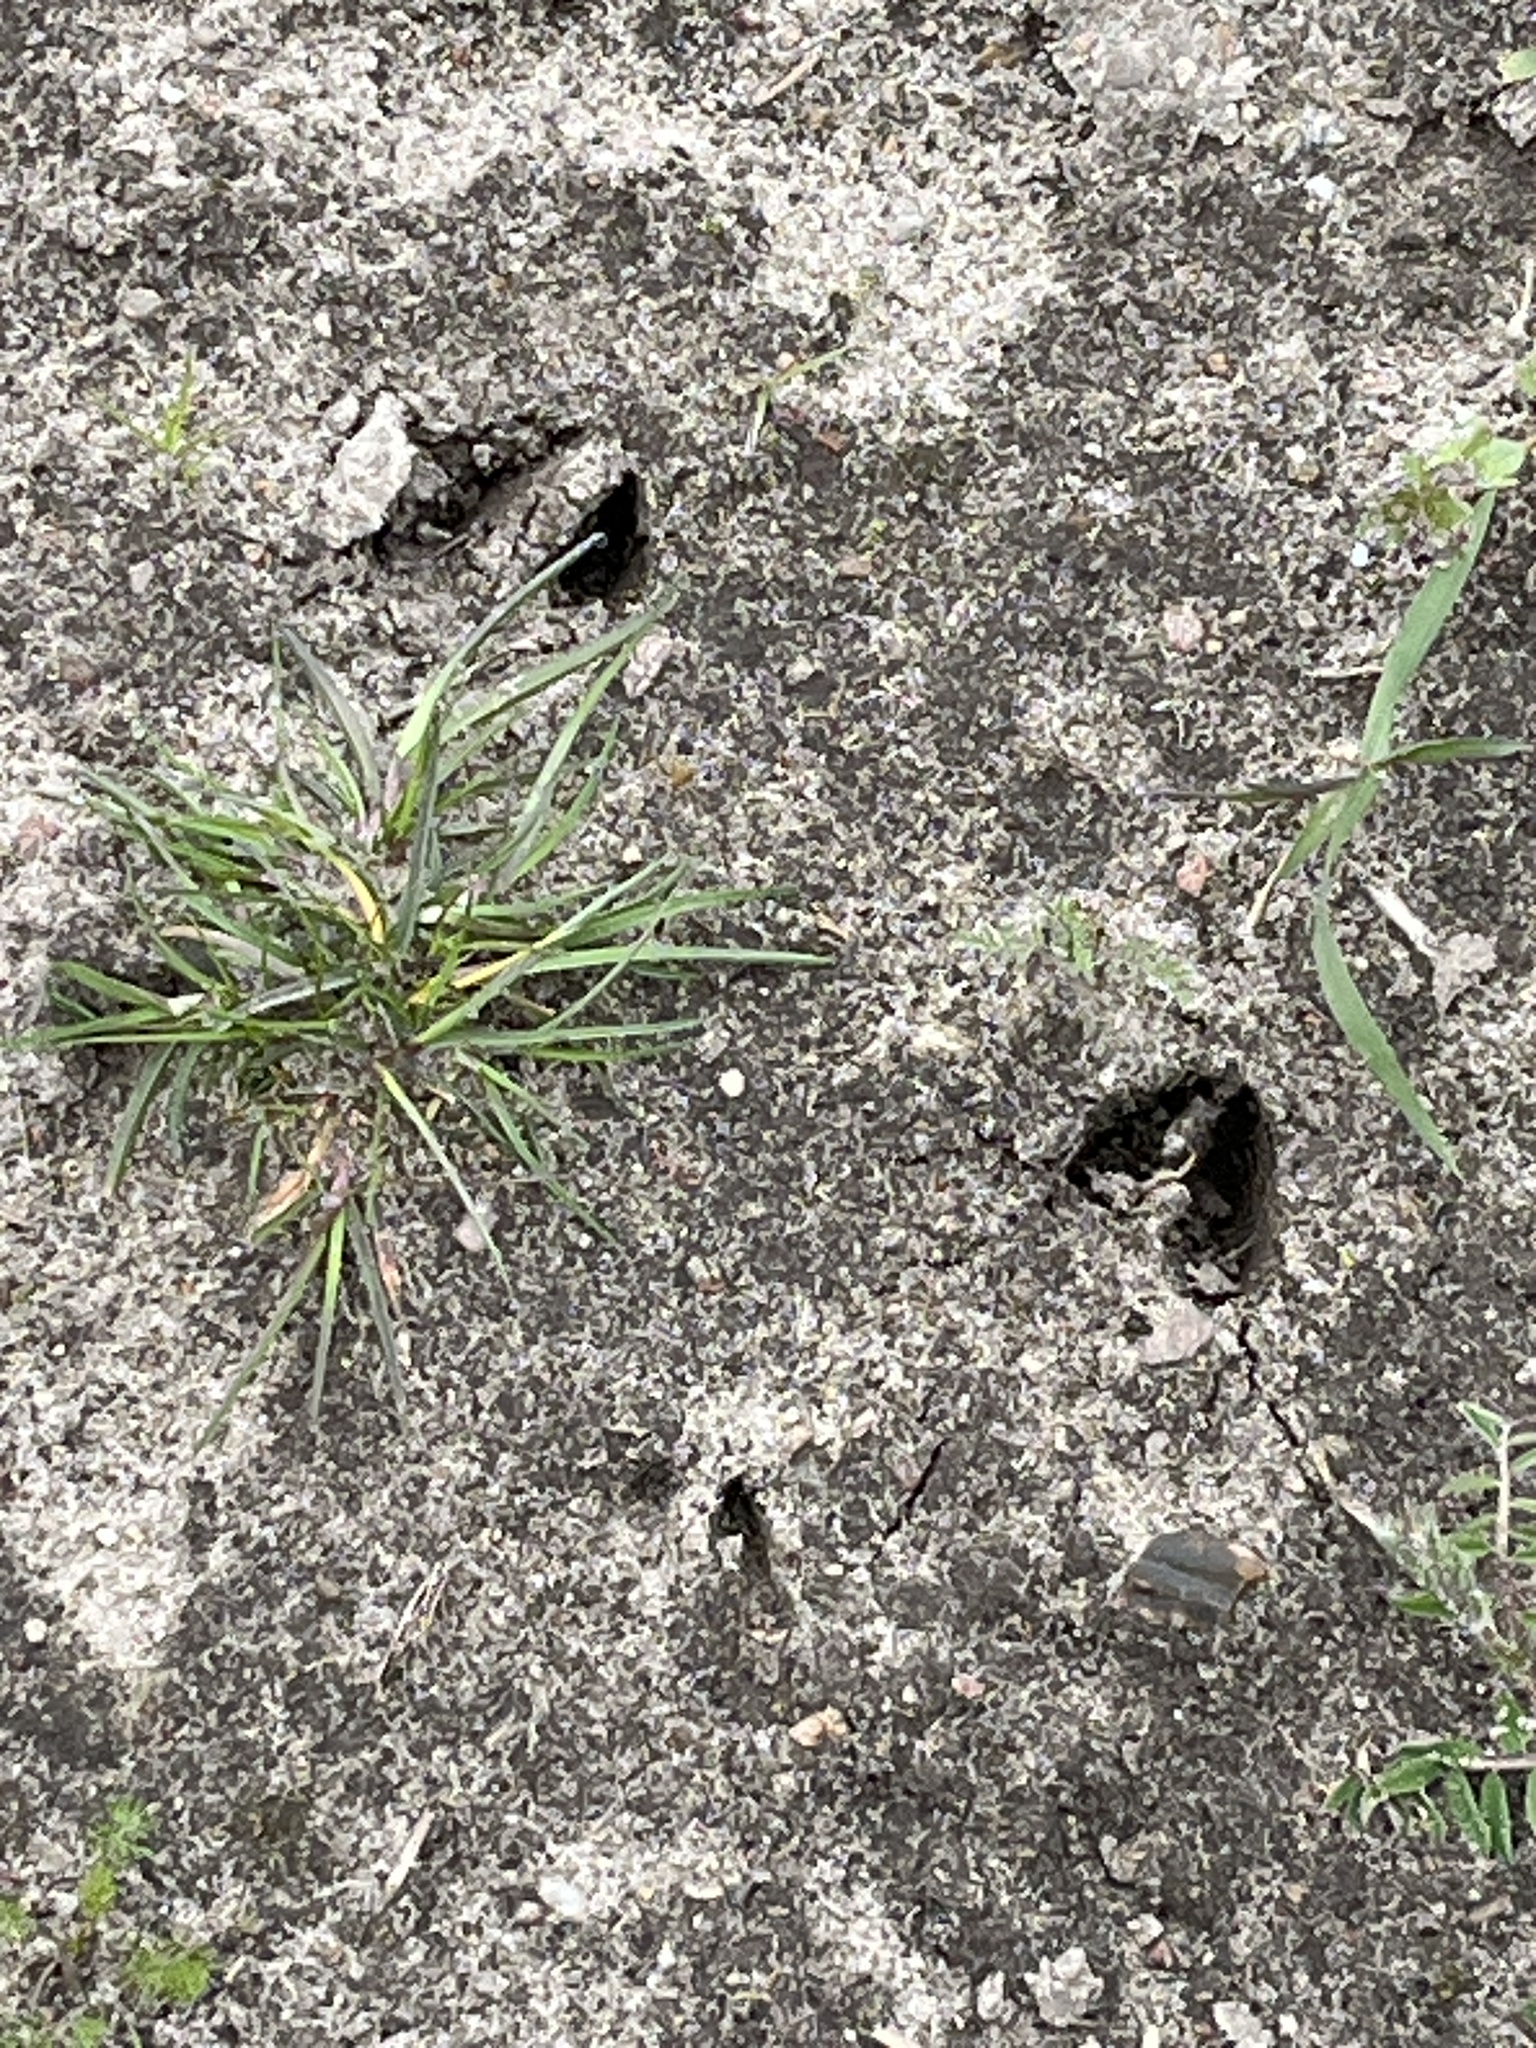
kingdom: Animalia
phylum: Chordata
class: Mammalia
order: Artiodactyla
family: Cervidae
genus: Capreolus
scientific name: Capreolus capreolus
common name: Western roe deer
